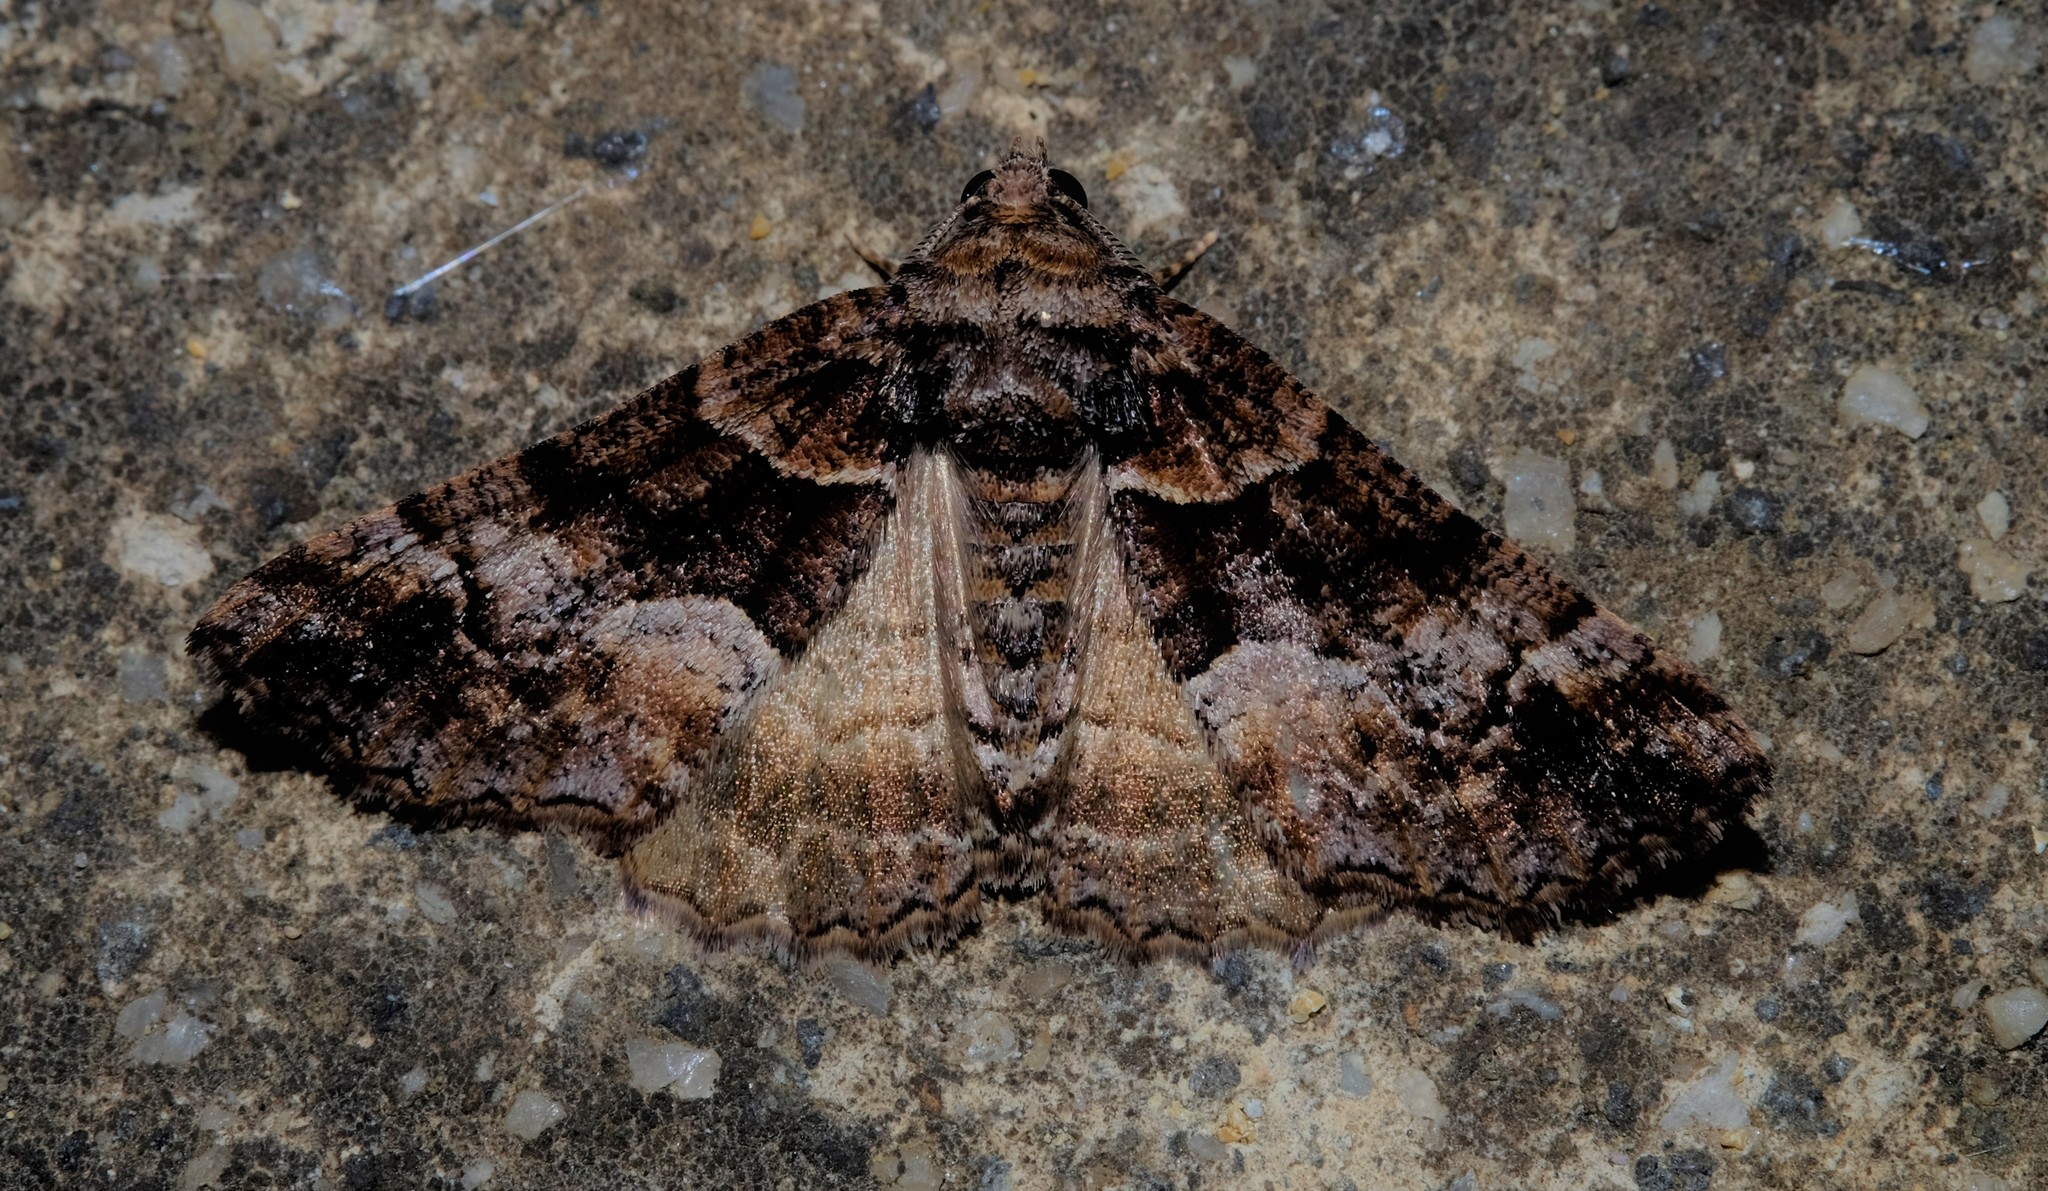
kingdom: Animalia
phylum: Arthropoda
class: Insecta
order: Lepidoptera
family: Geometridae
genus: Gastrina
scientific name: Gastrina cristaria
